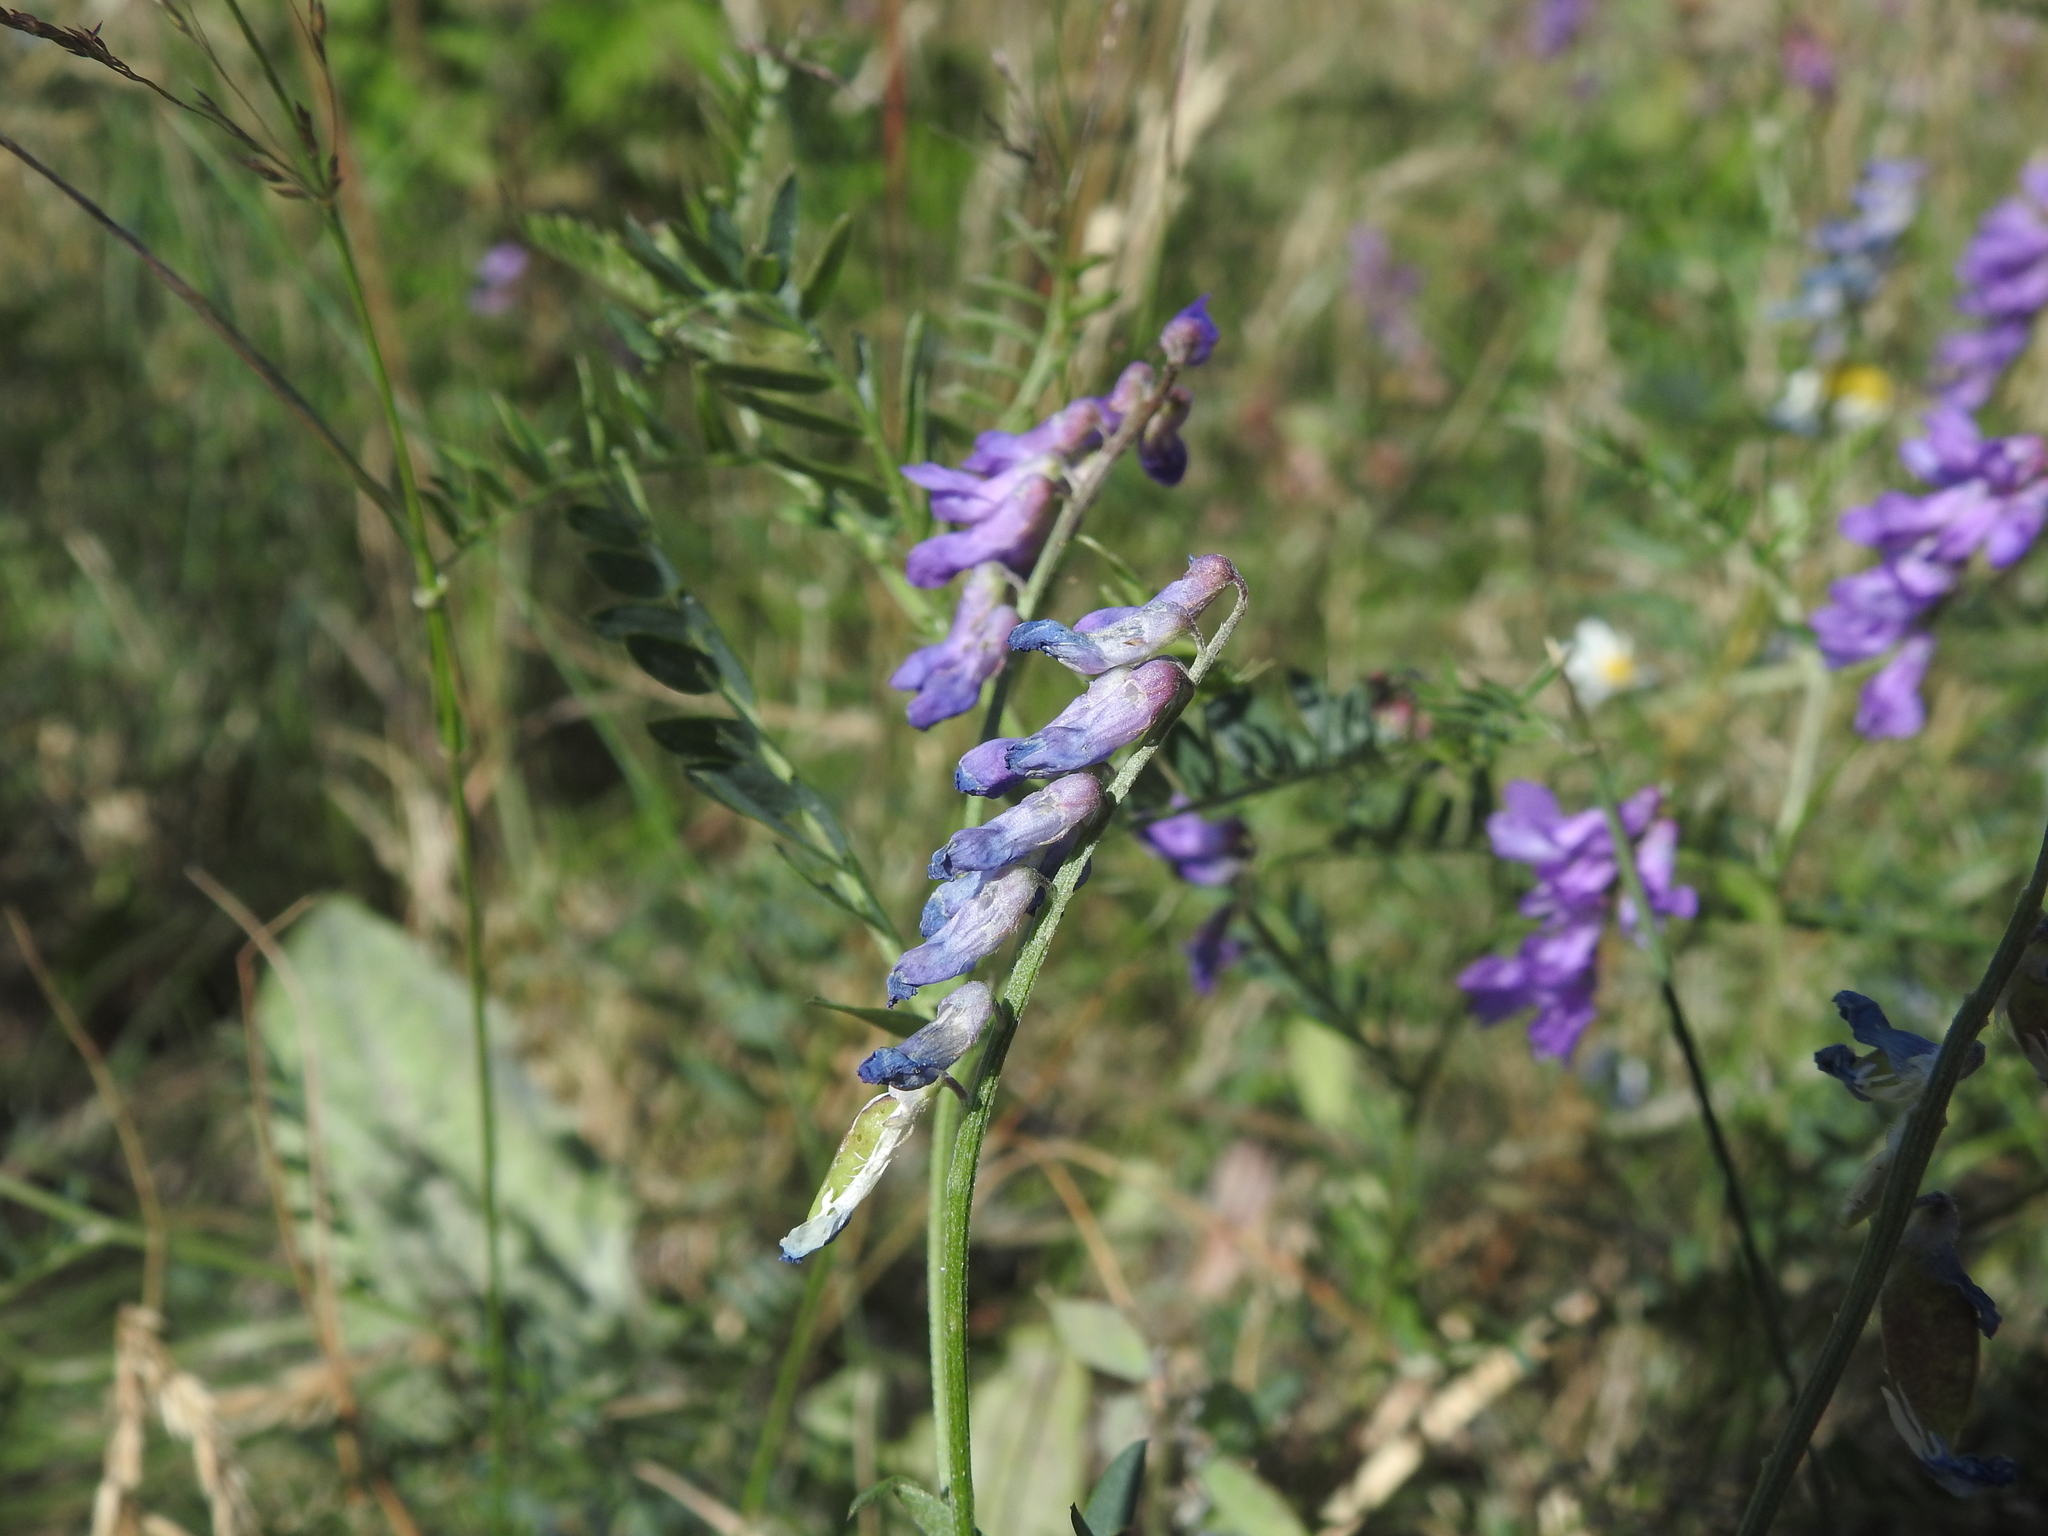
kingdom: Plantae
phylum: Tracheophyta
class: Magnoliopsida
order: Fabales
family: Fabaceae
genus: Vicia
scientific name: Vicia cracca
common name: Bird vetch
